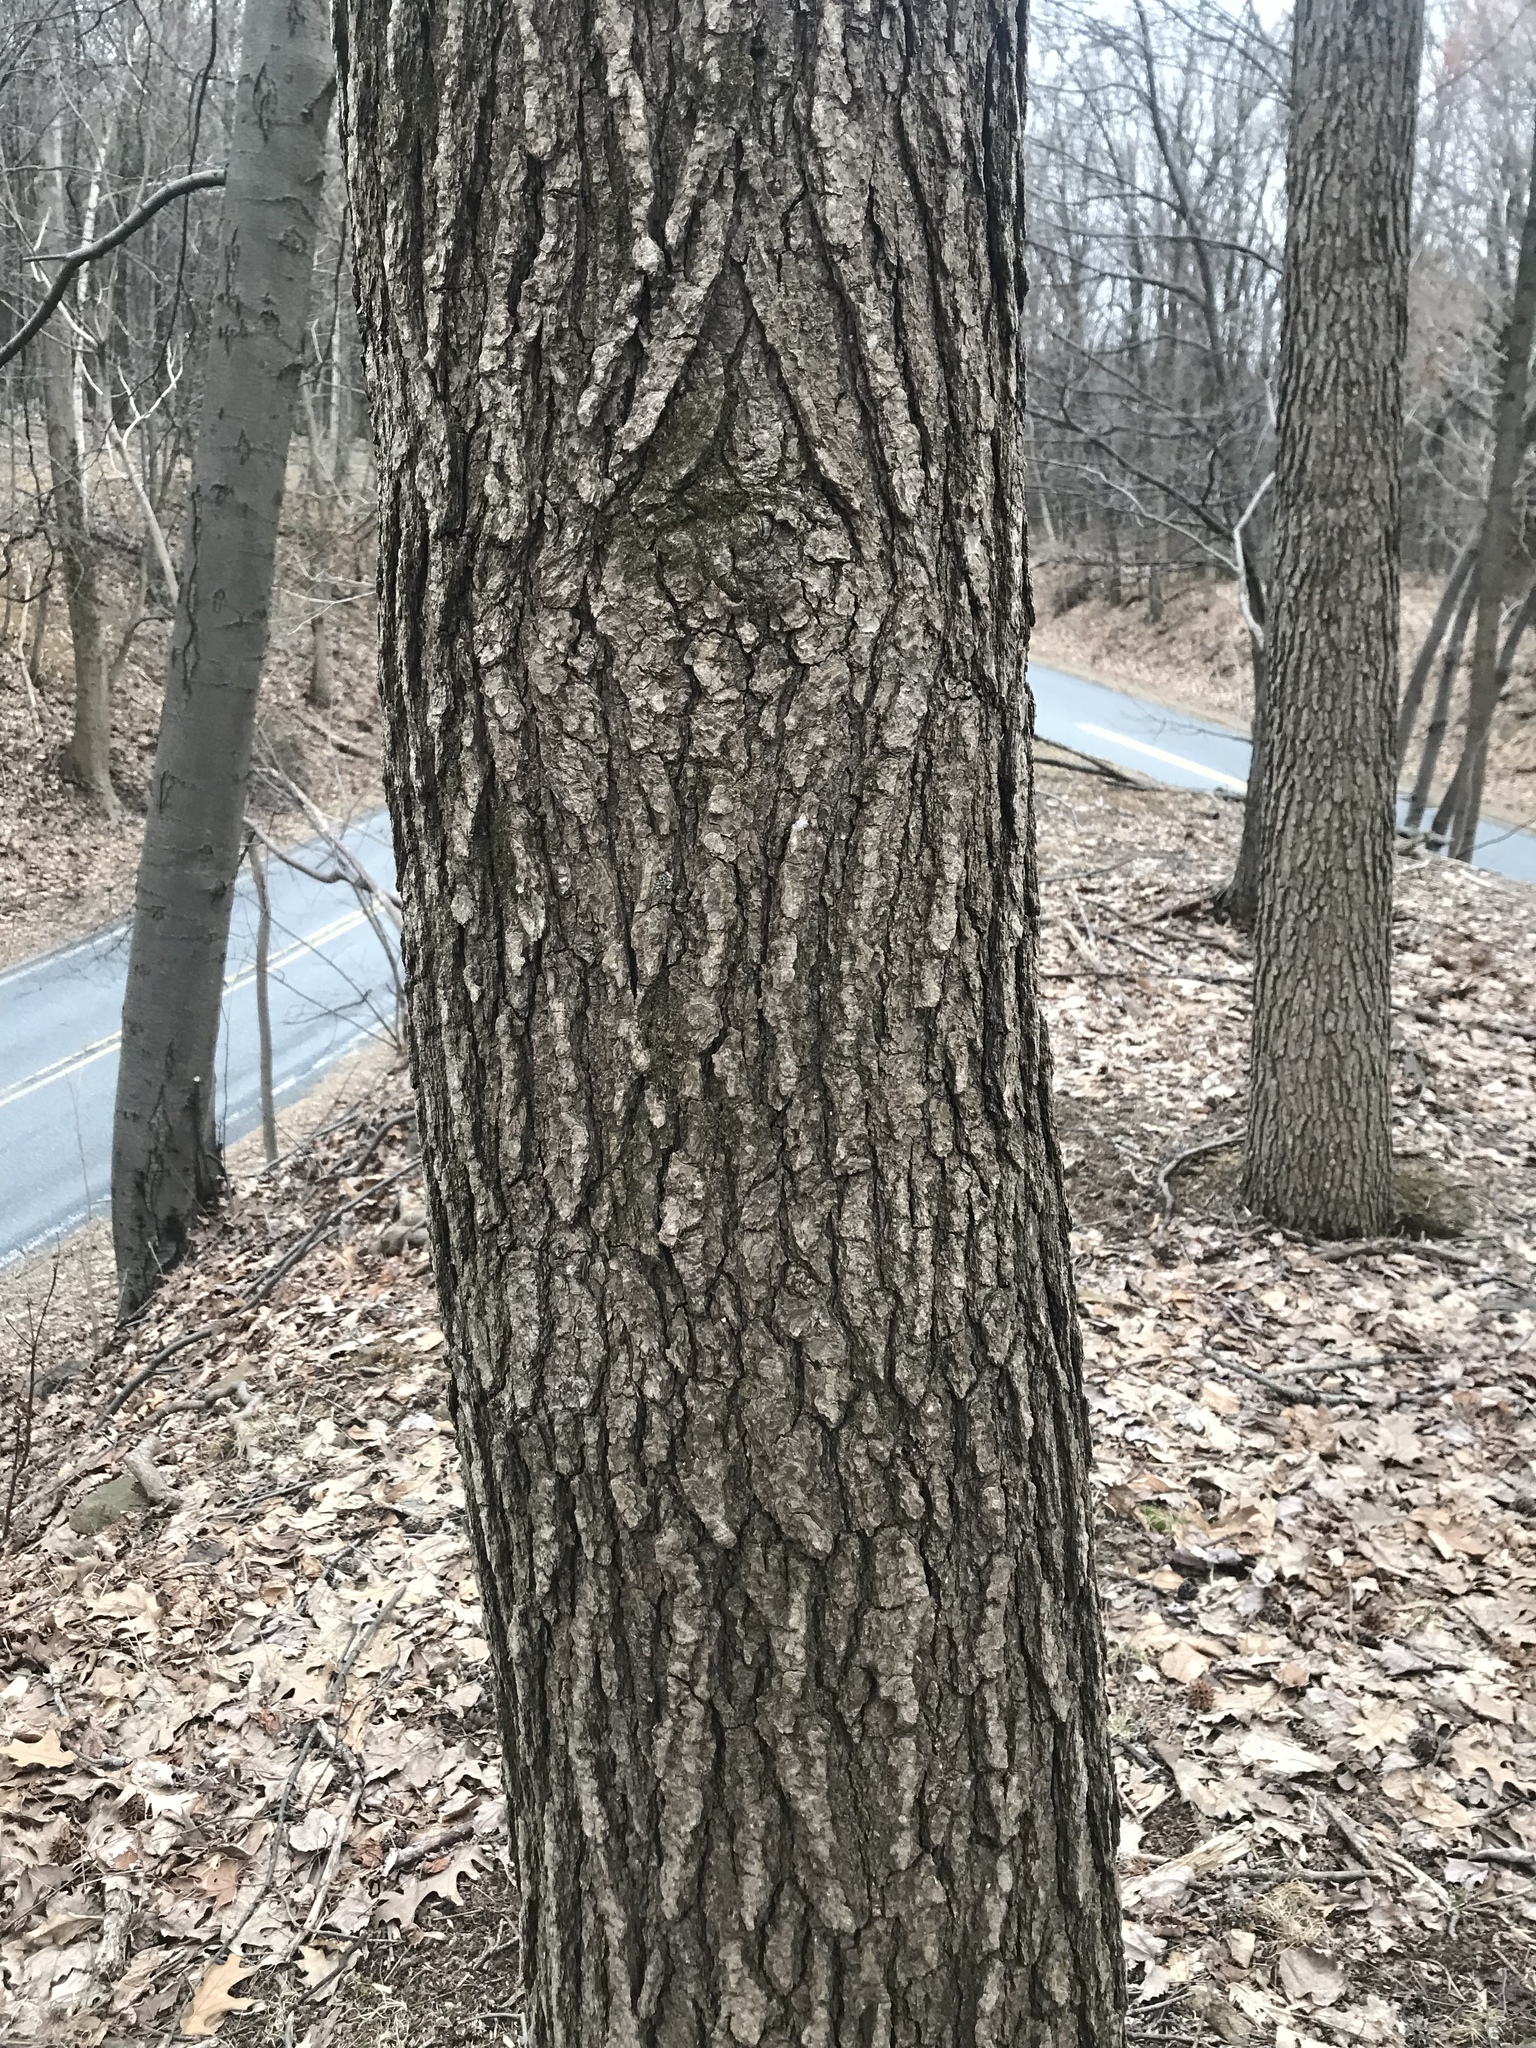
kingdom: Plantae
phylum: Tracheophyta
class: Magnoliopsida
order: Saxifragales
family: Altingiaceae
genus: Liquidambar
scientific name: Liquidambar styraciflua
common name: Sweet gum
